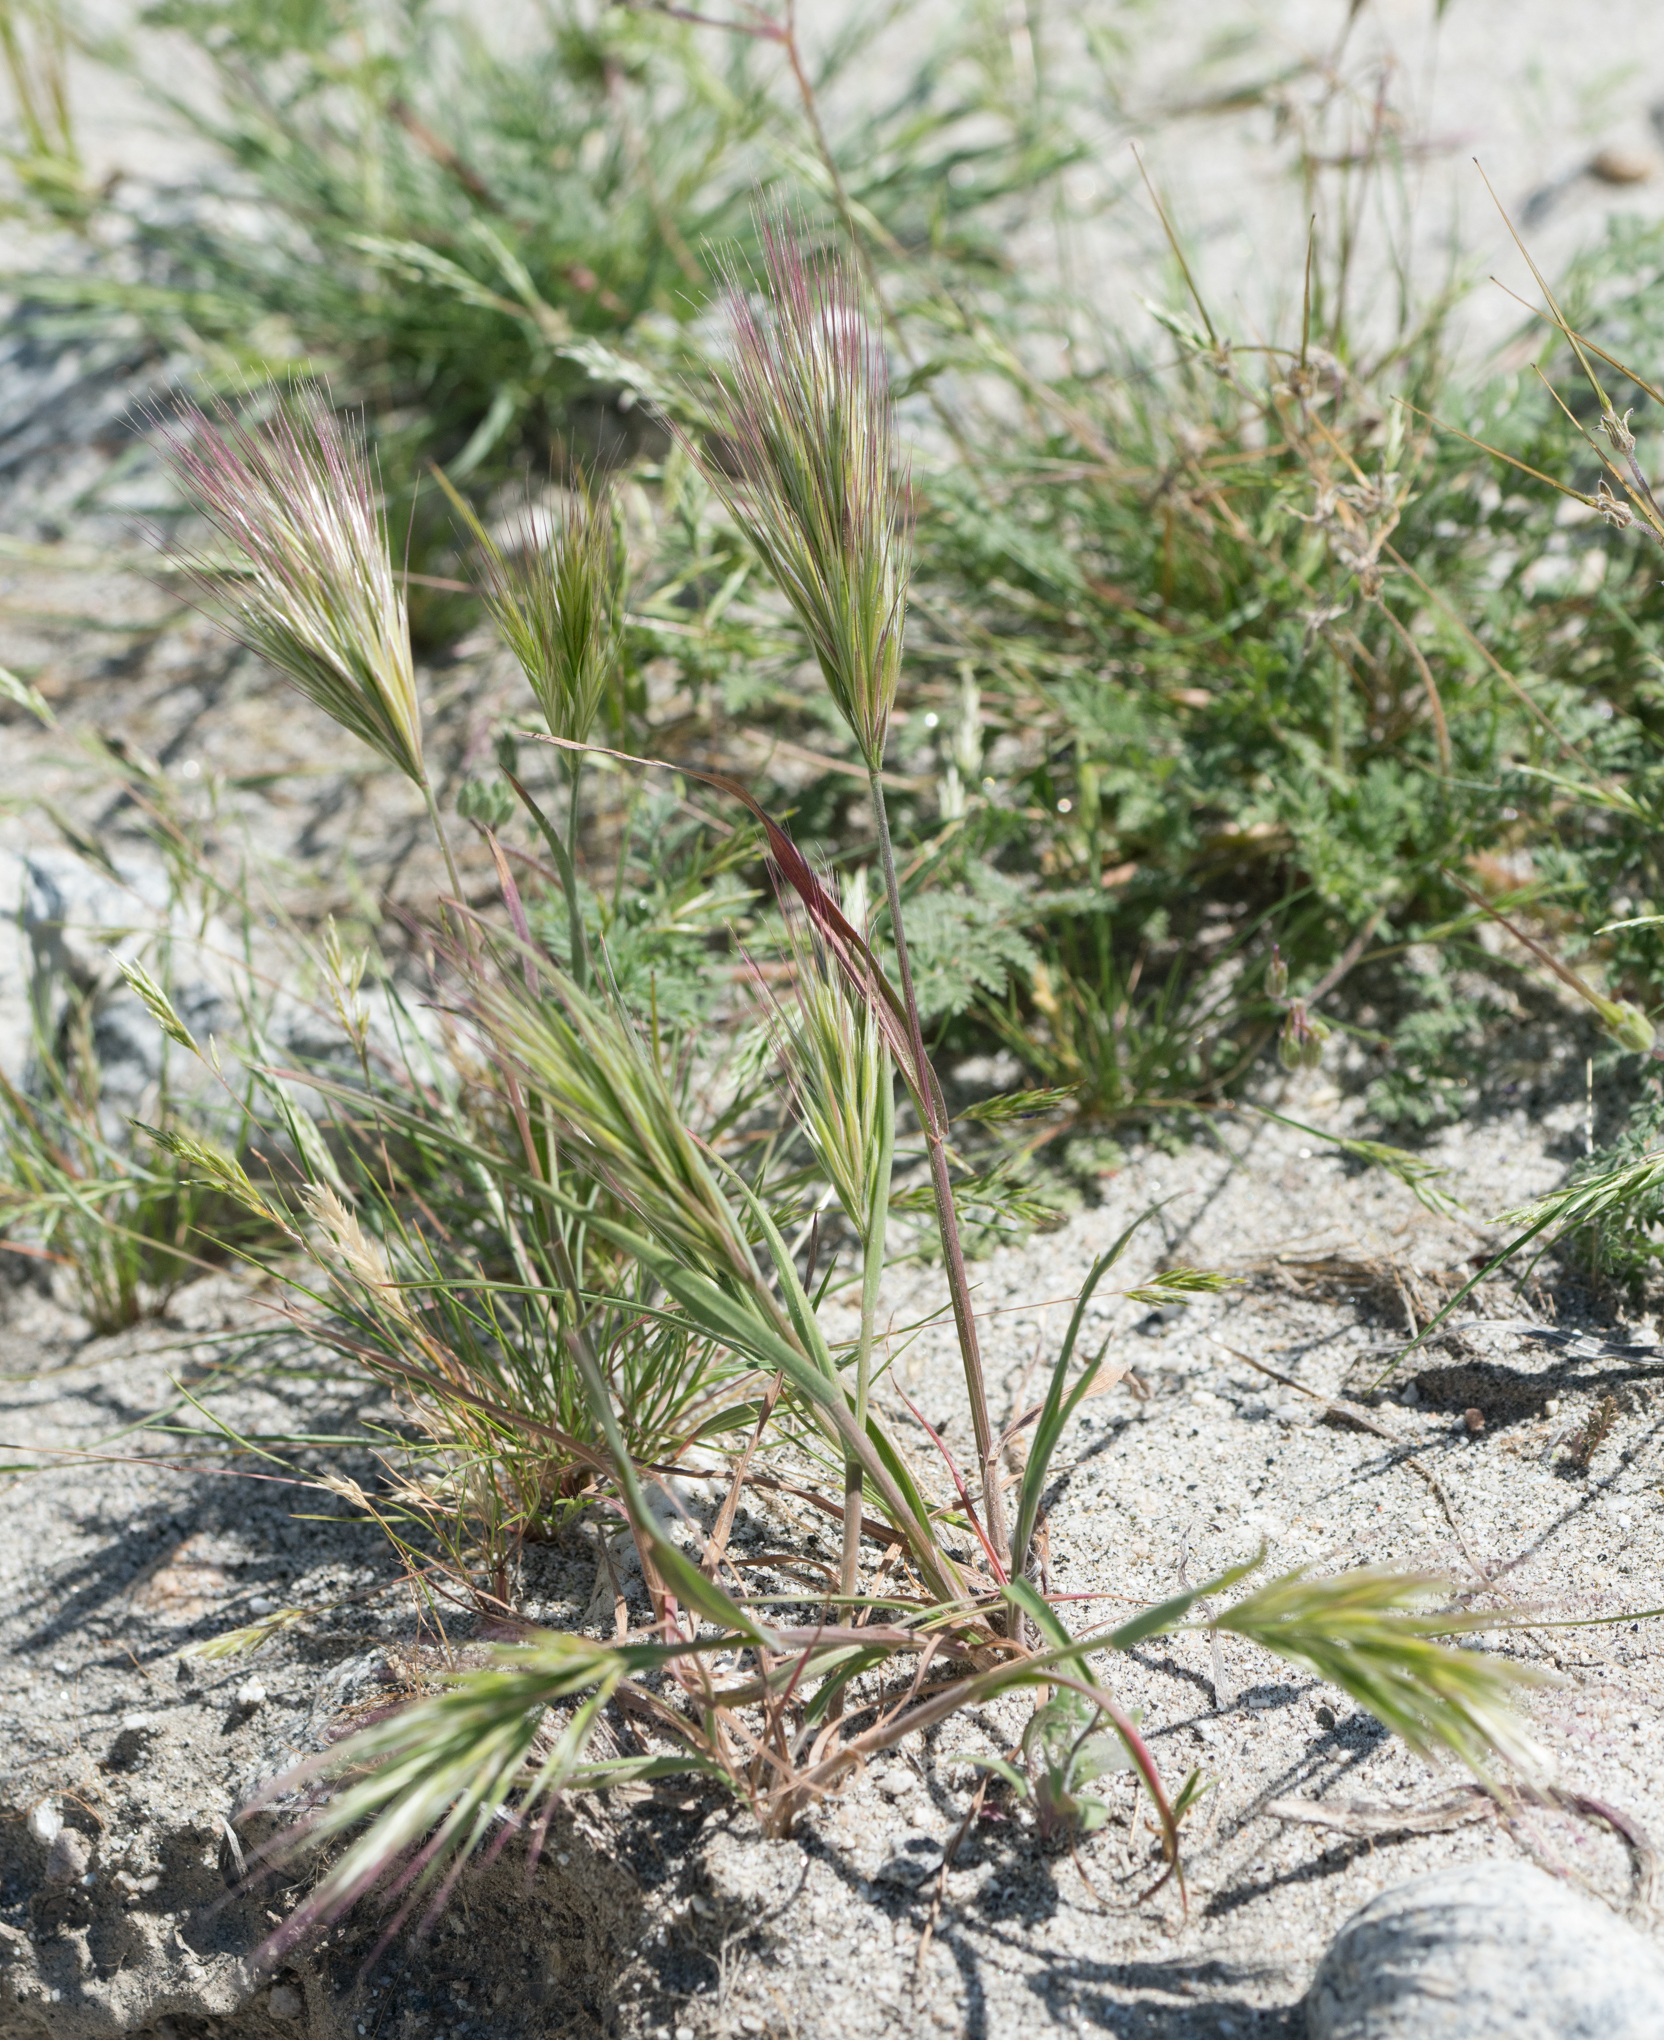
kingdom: Plantae
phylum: Tracheophyta
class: Liliopsida
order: Poales
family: Poaceae
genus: Bromus
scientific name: Bromus rubens
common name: Red brome
